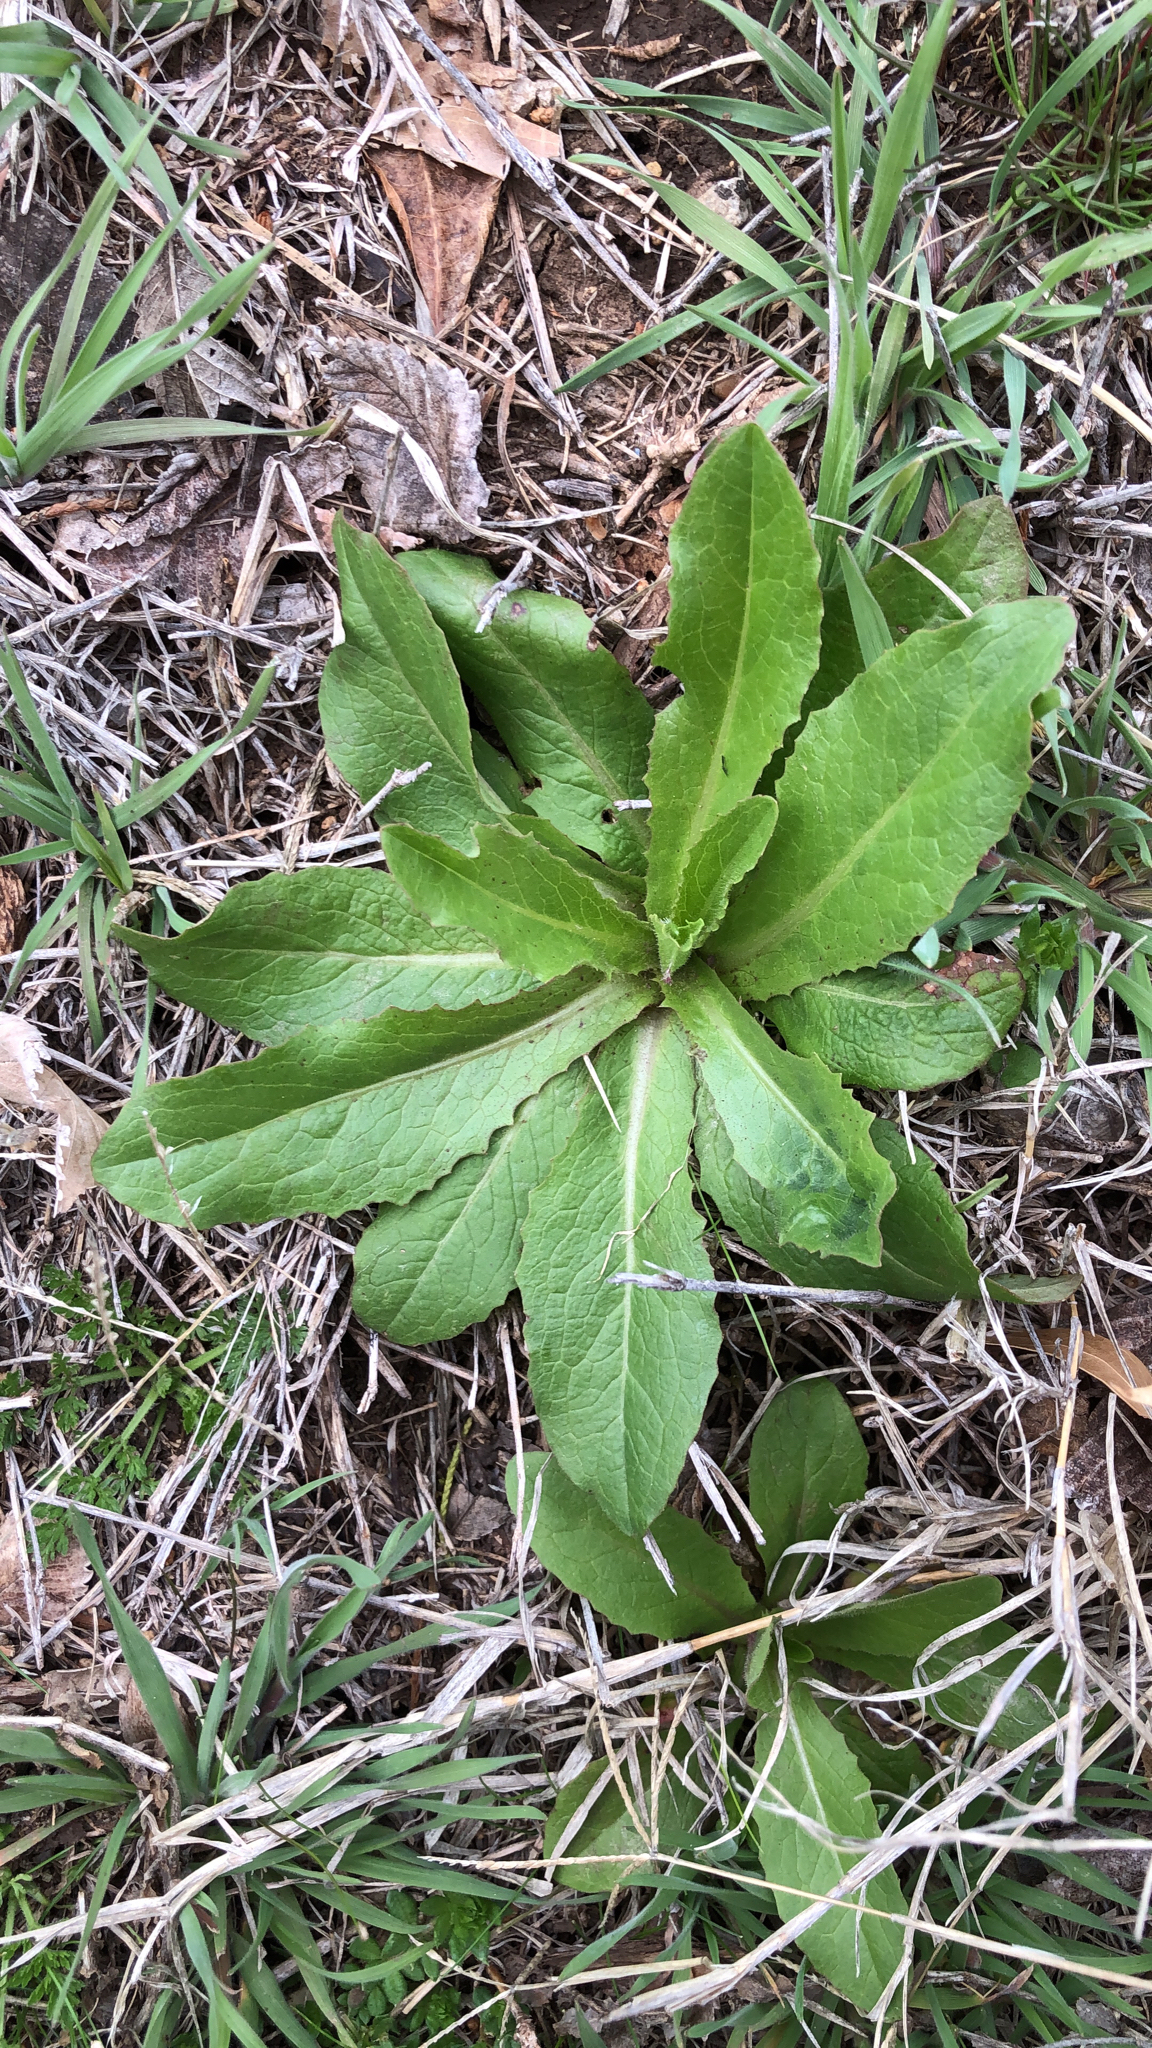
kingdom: Plantae
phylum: Tracheophyta
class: Magnoliopsida
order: Asterales
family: Asteraceae
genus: Lactuca
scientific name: Lactuca serriola
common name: Prickly lettuce
